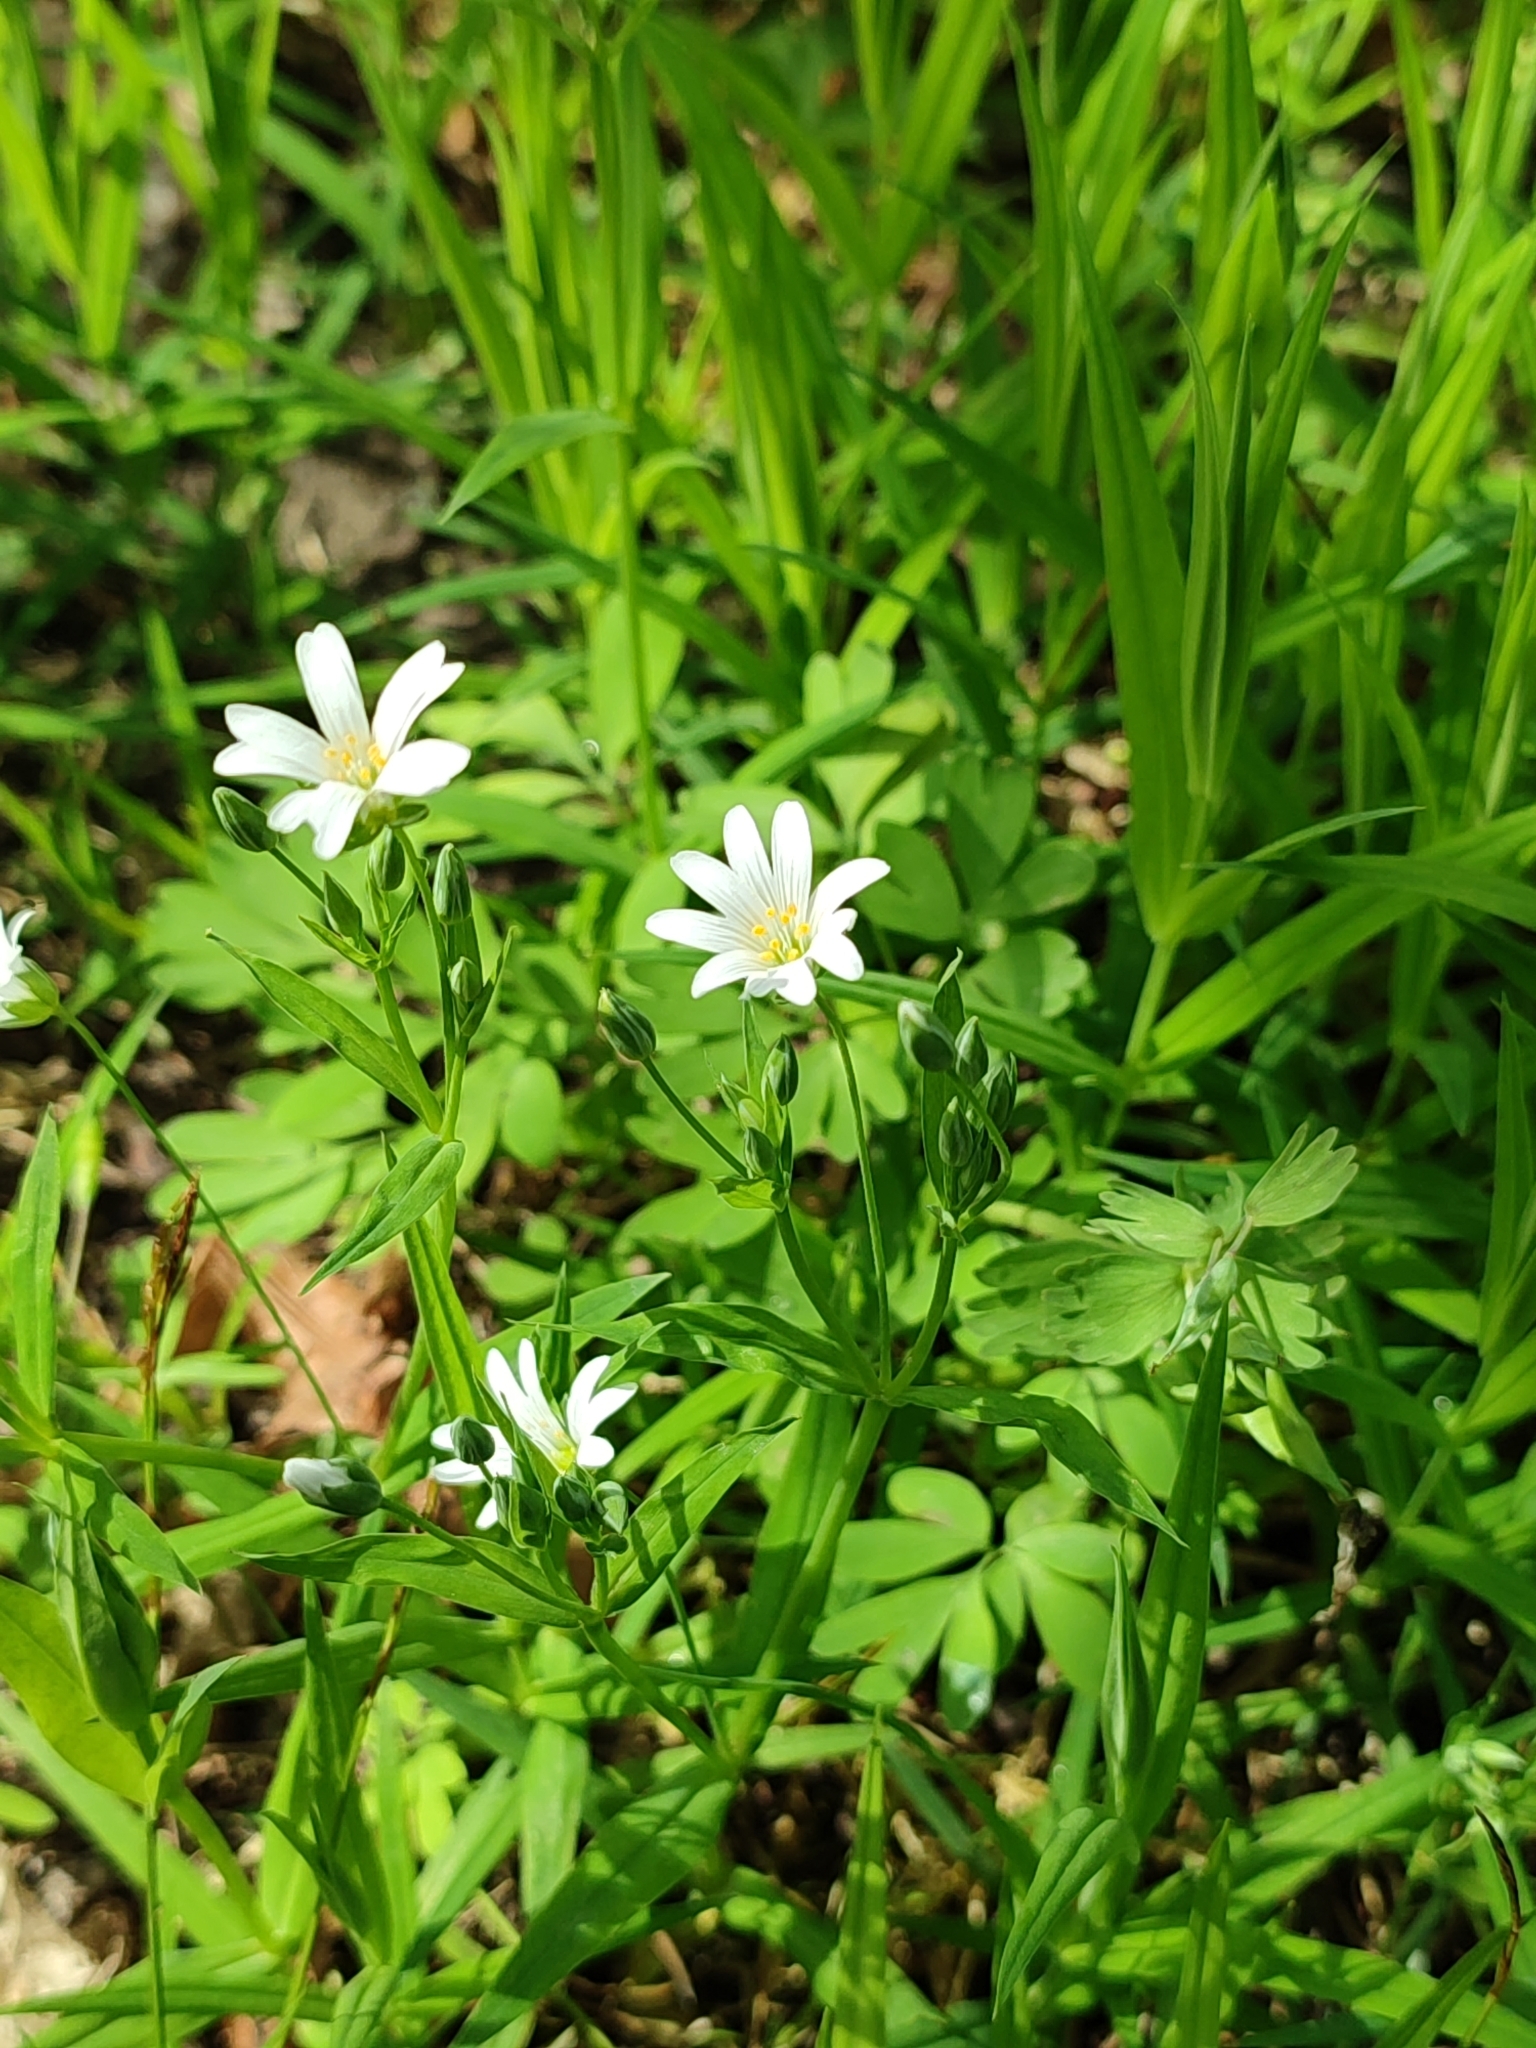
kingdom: Plantae
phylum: Tracheophyta
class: Magnoliopsida
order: Caryophyllales
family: Caryophyllaceae
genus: Rabelera
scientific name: Rabelera holostea
